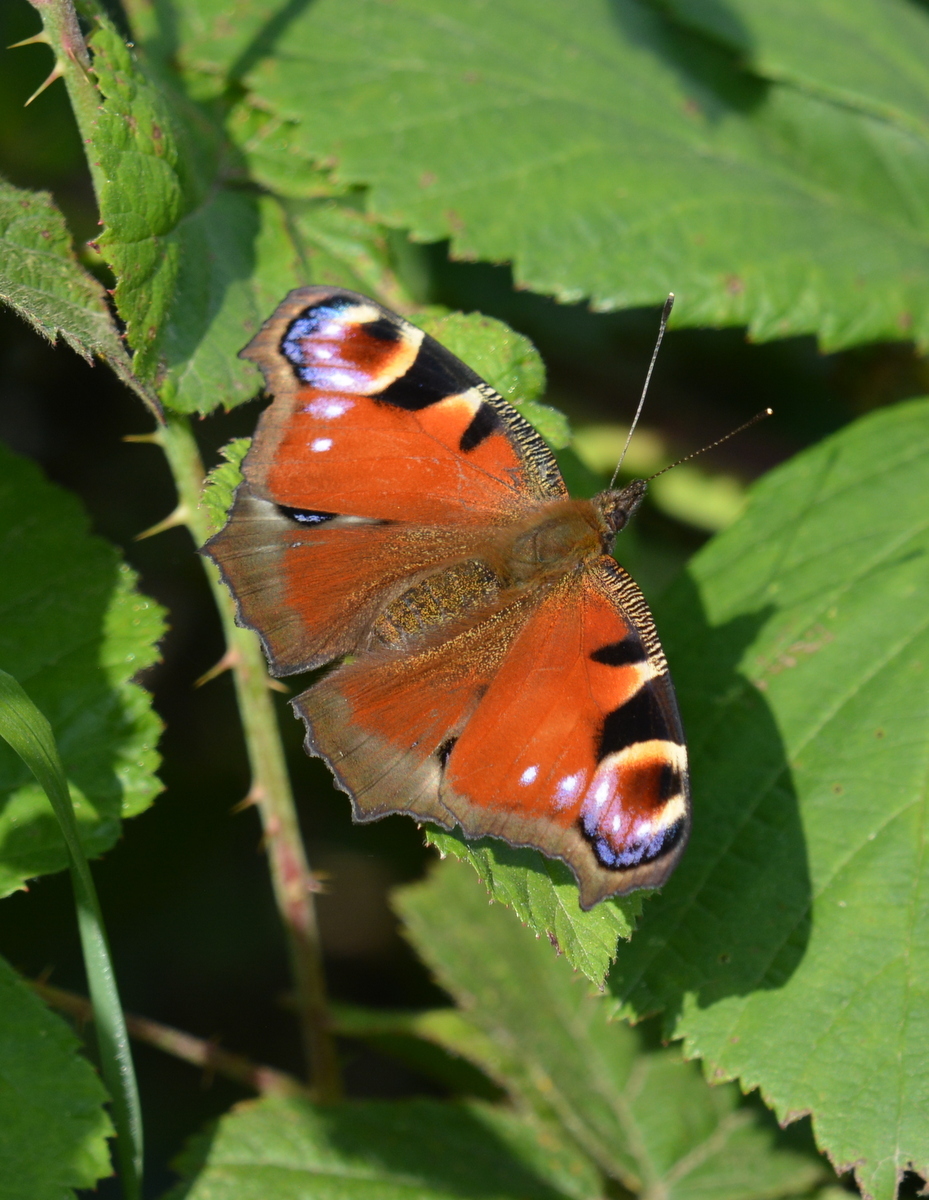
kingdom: Animalia
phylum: Arthropoda
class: Insecta
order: Lepidoptera
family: Nymphalidae
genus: Aglais
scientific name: Aglais io
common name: Peacock
